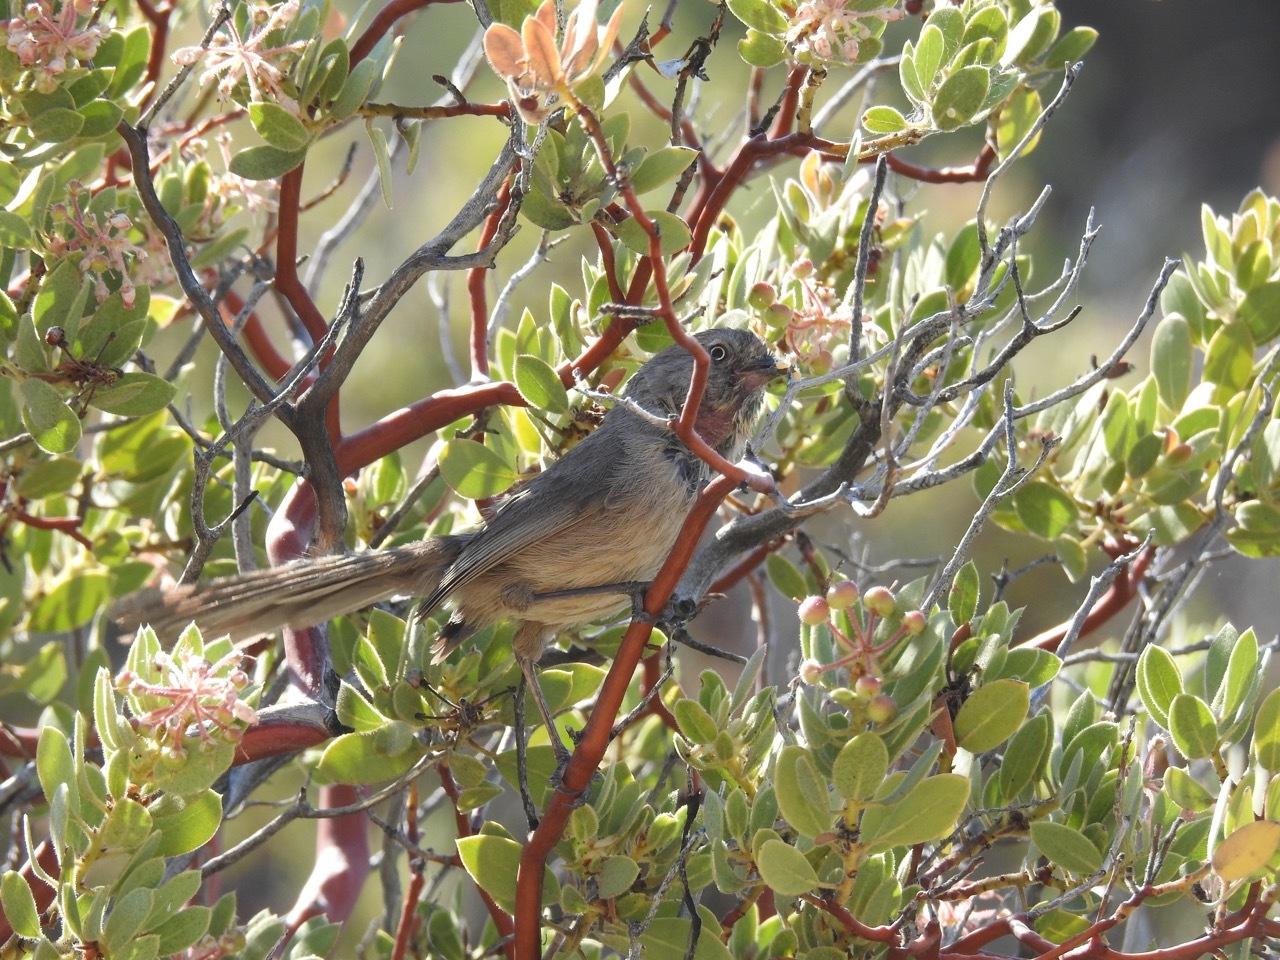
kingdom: Animalia
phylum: Chordata
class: Aves
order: Passeriformes
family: Sylviidae
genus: Chamaea
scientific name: Chamaea fasciata
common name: Wrentit
